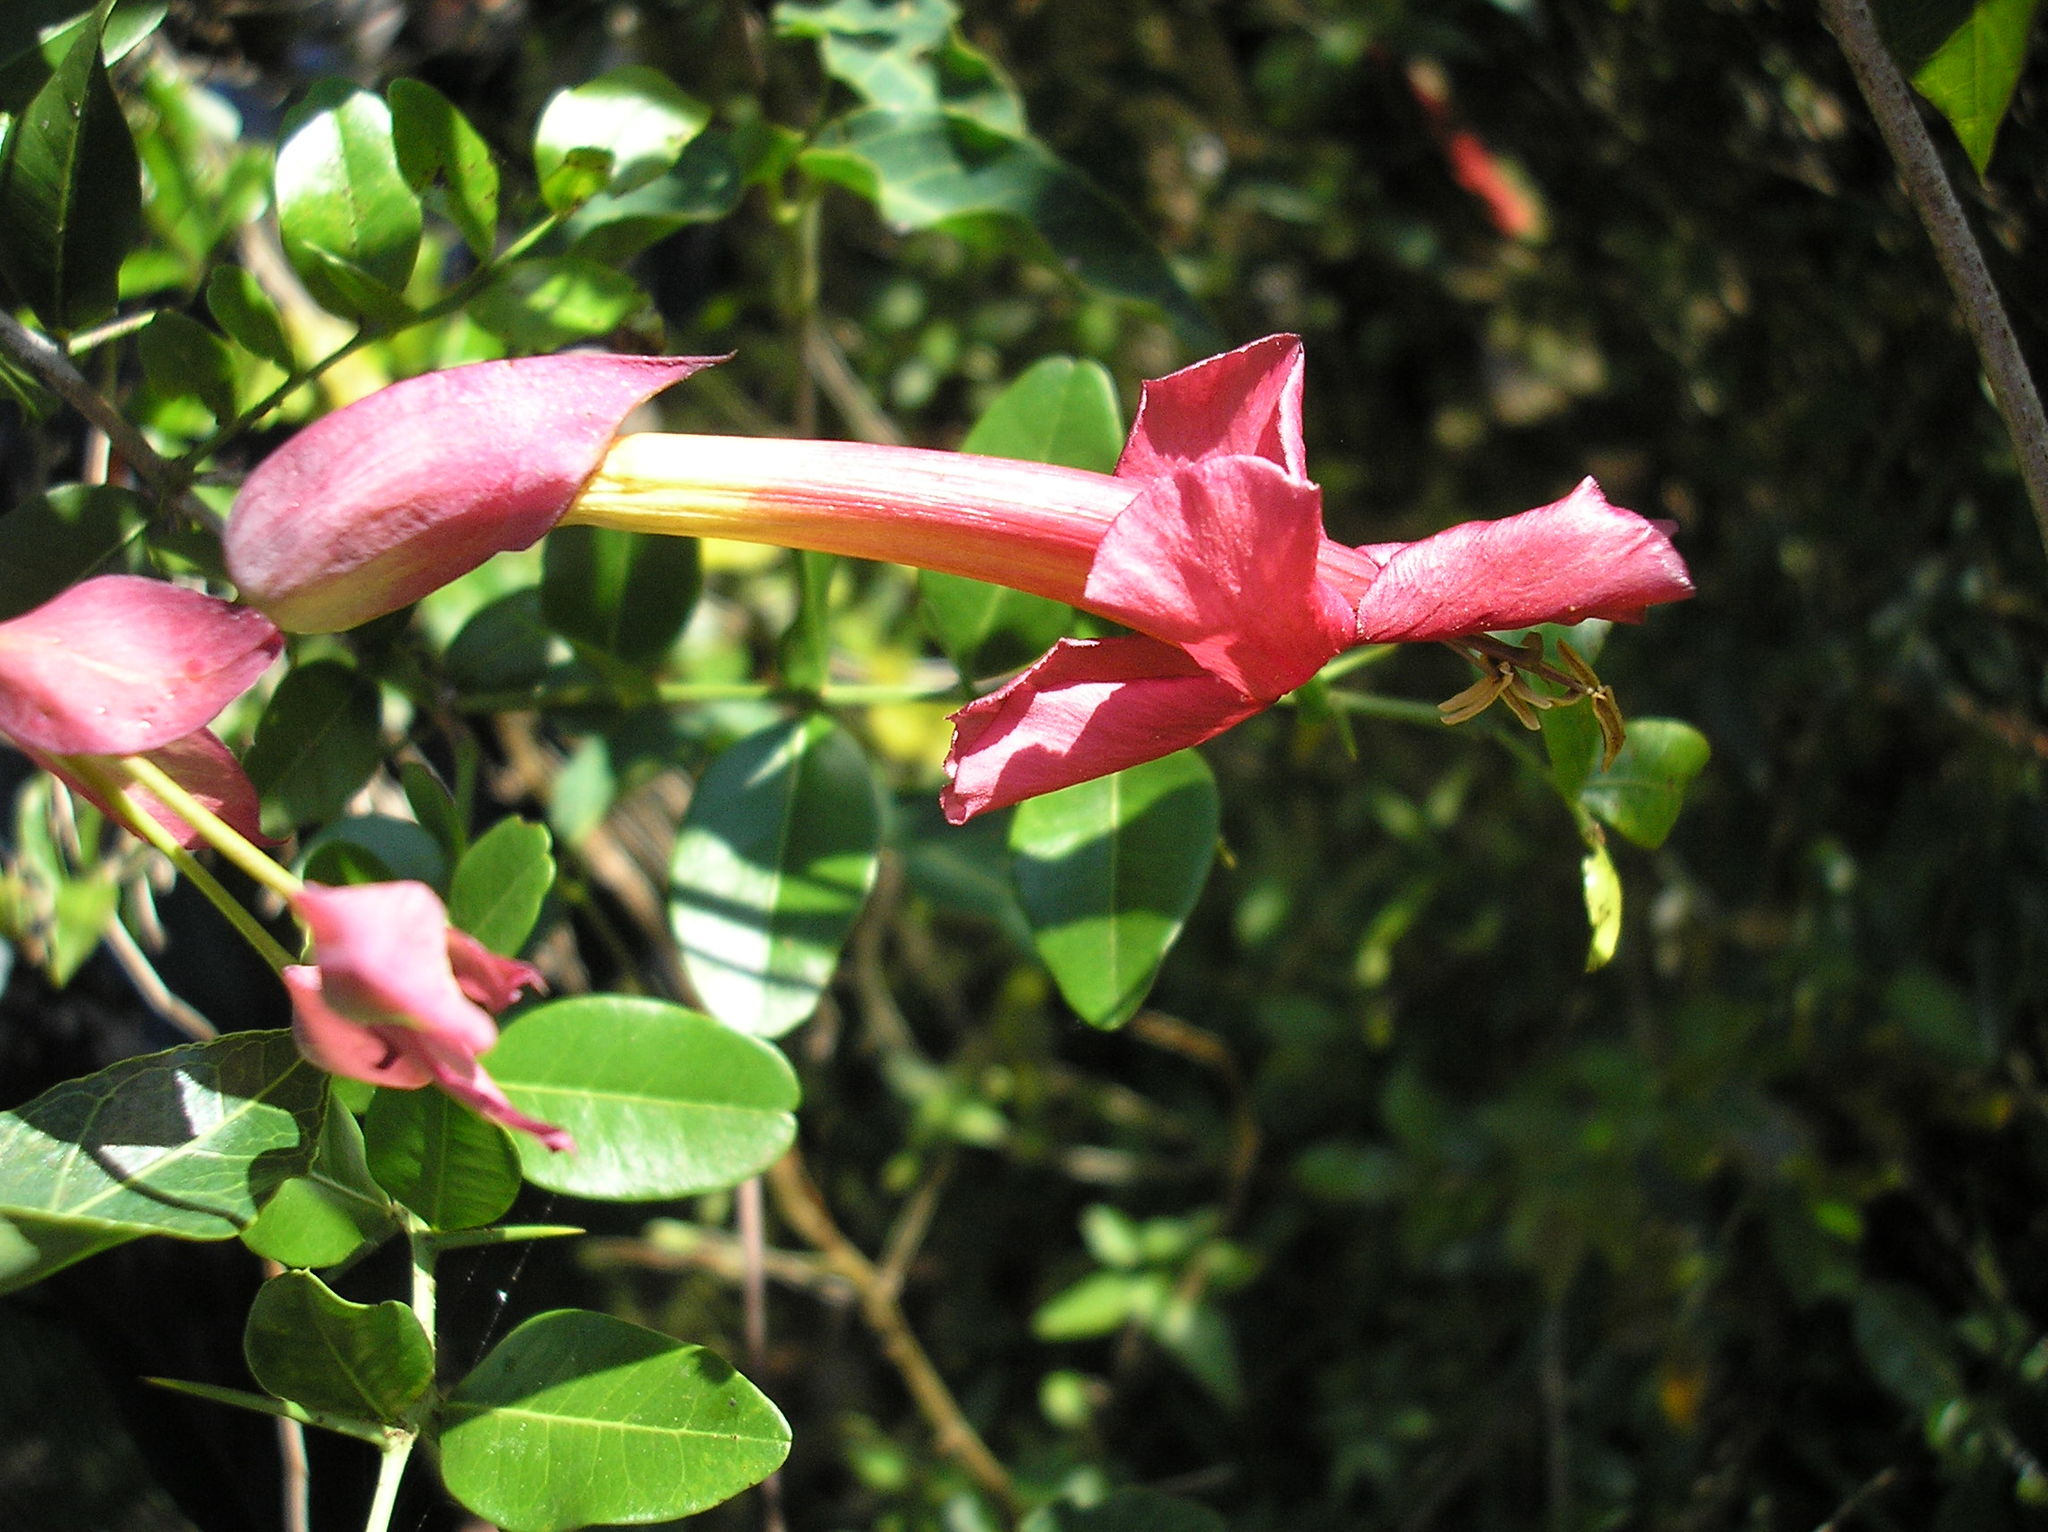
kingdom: Plantae
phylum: Tracheophyta
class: Magnoliopsida
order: Lamiales
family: Bignoniaceae
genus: Dolichandra
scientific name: Dolichandra cynanchoides
